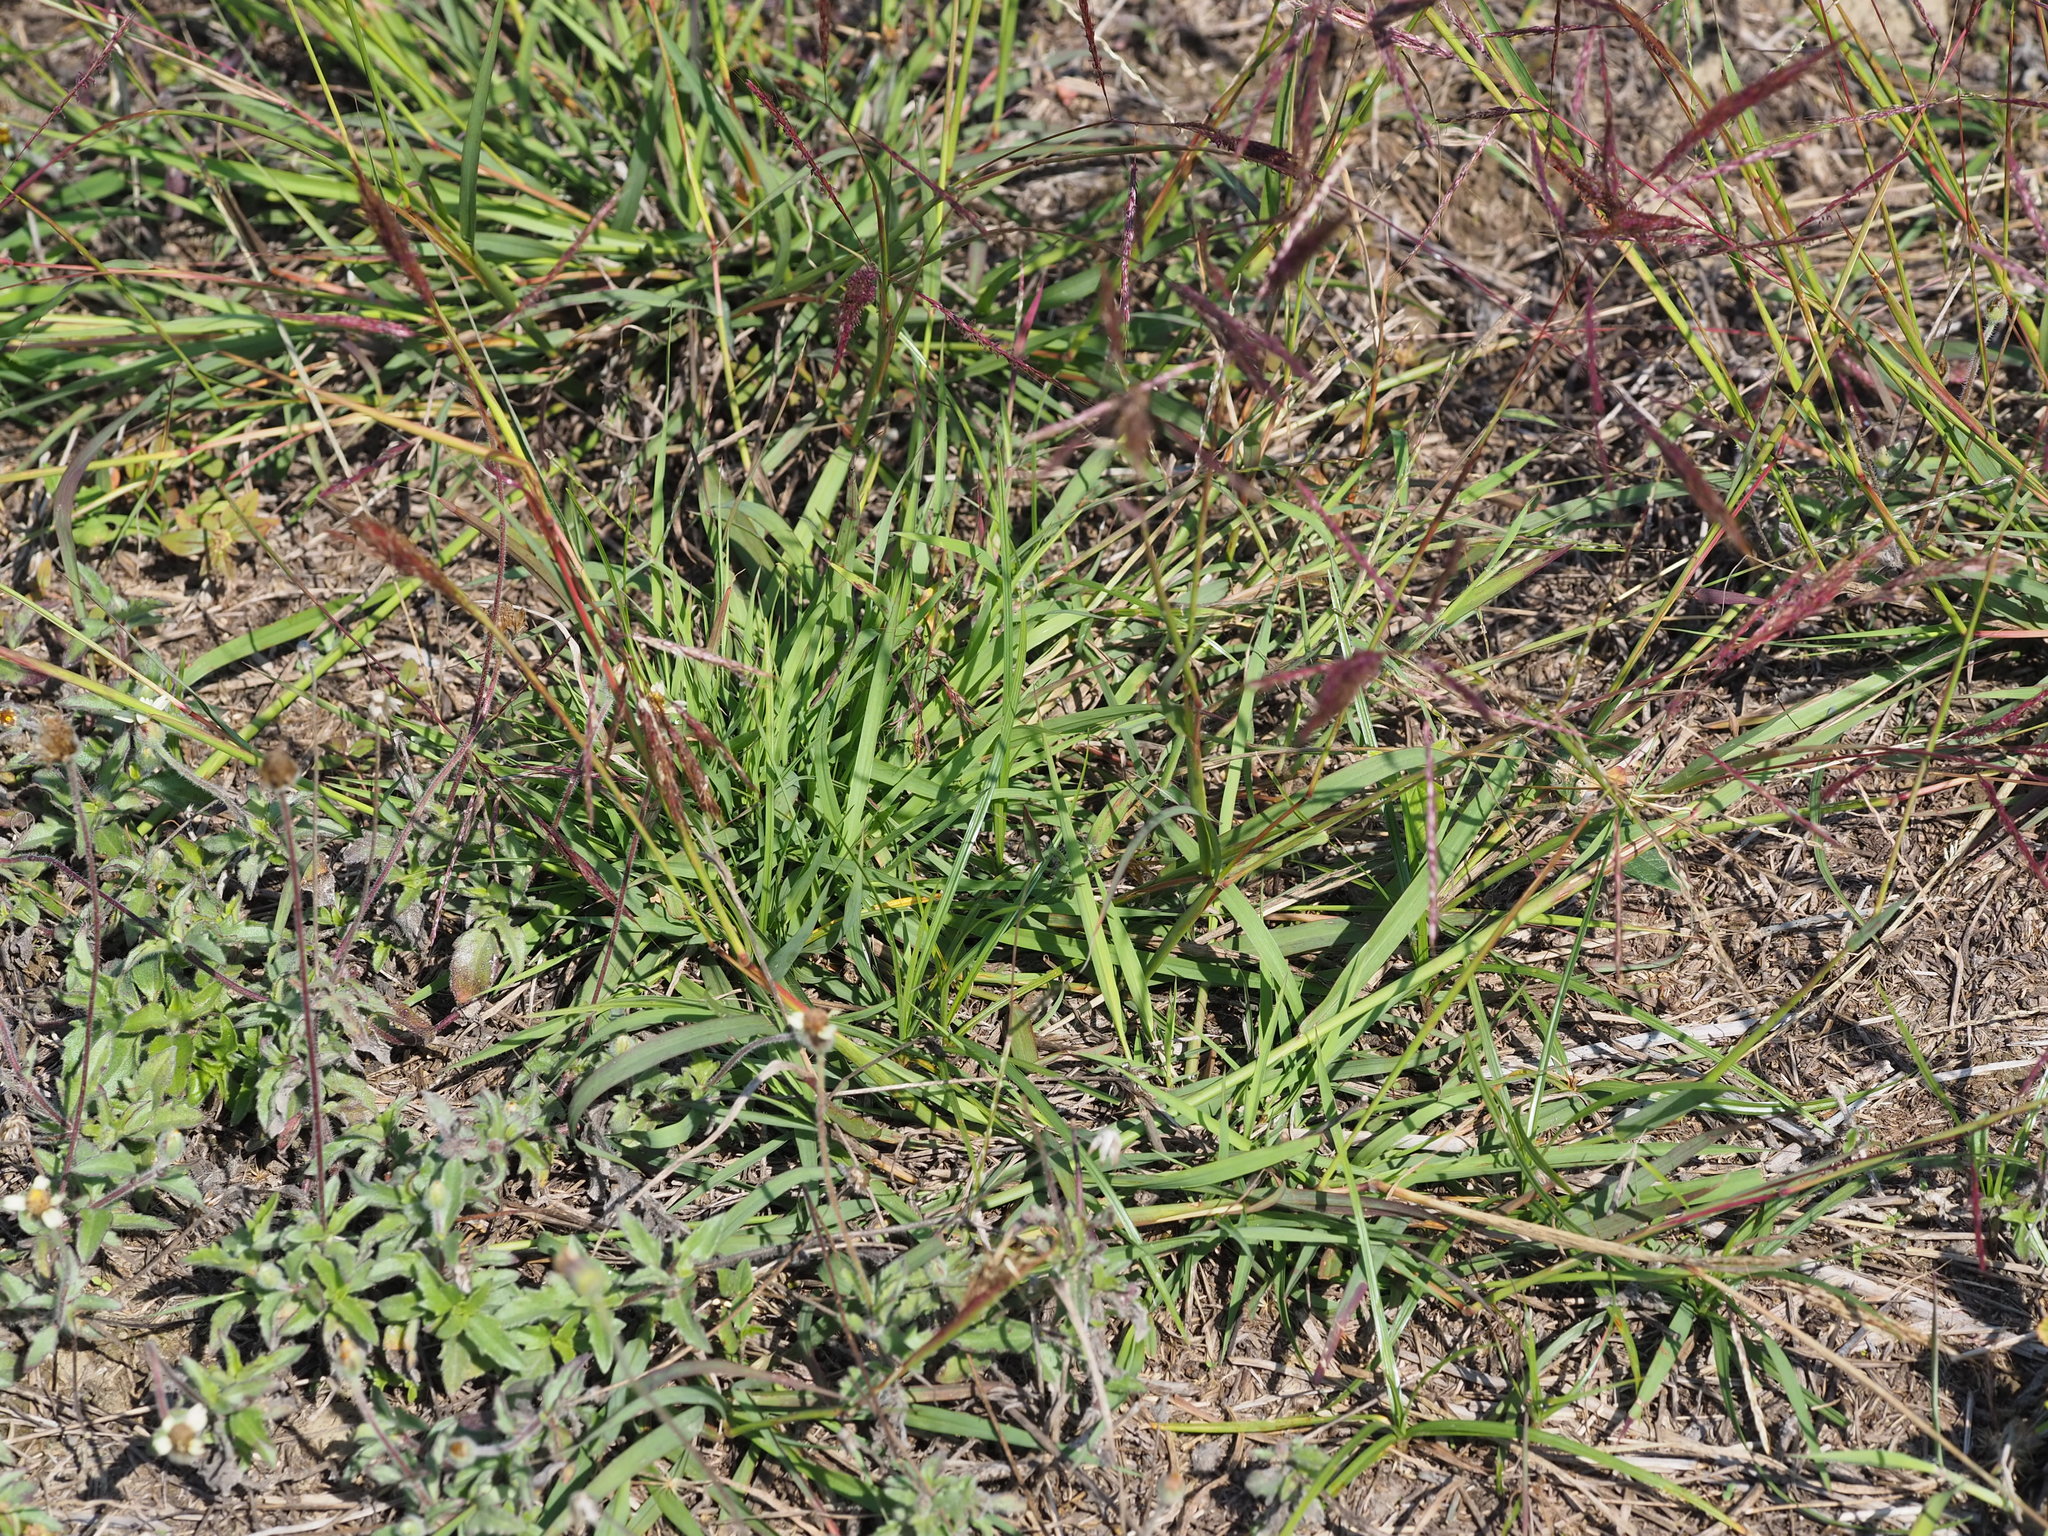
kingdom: Plantae
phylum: Tracheophyta
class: Liliopsida
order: Poales
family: Poaceae
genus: Bothriochloa
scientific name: Bothriochloa bladhii
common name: Caucasian bluestem
